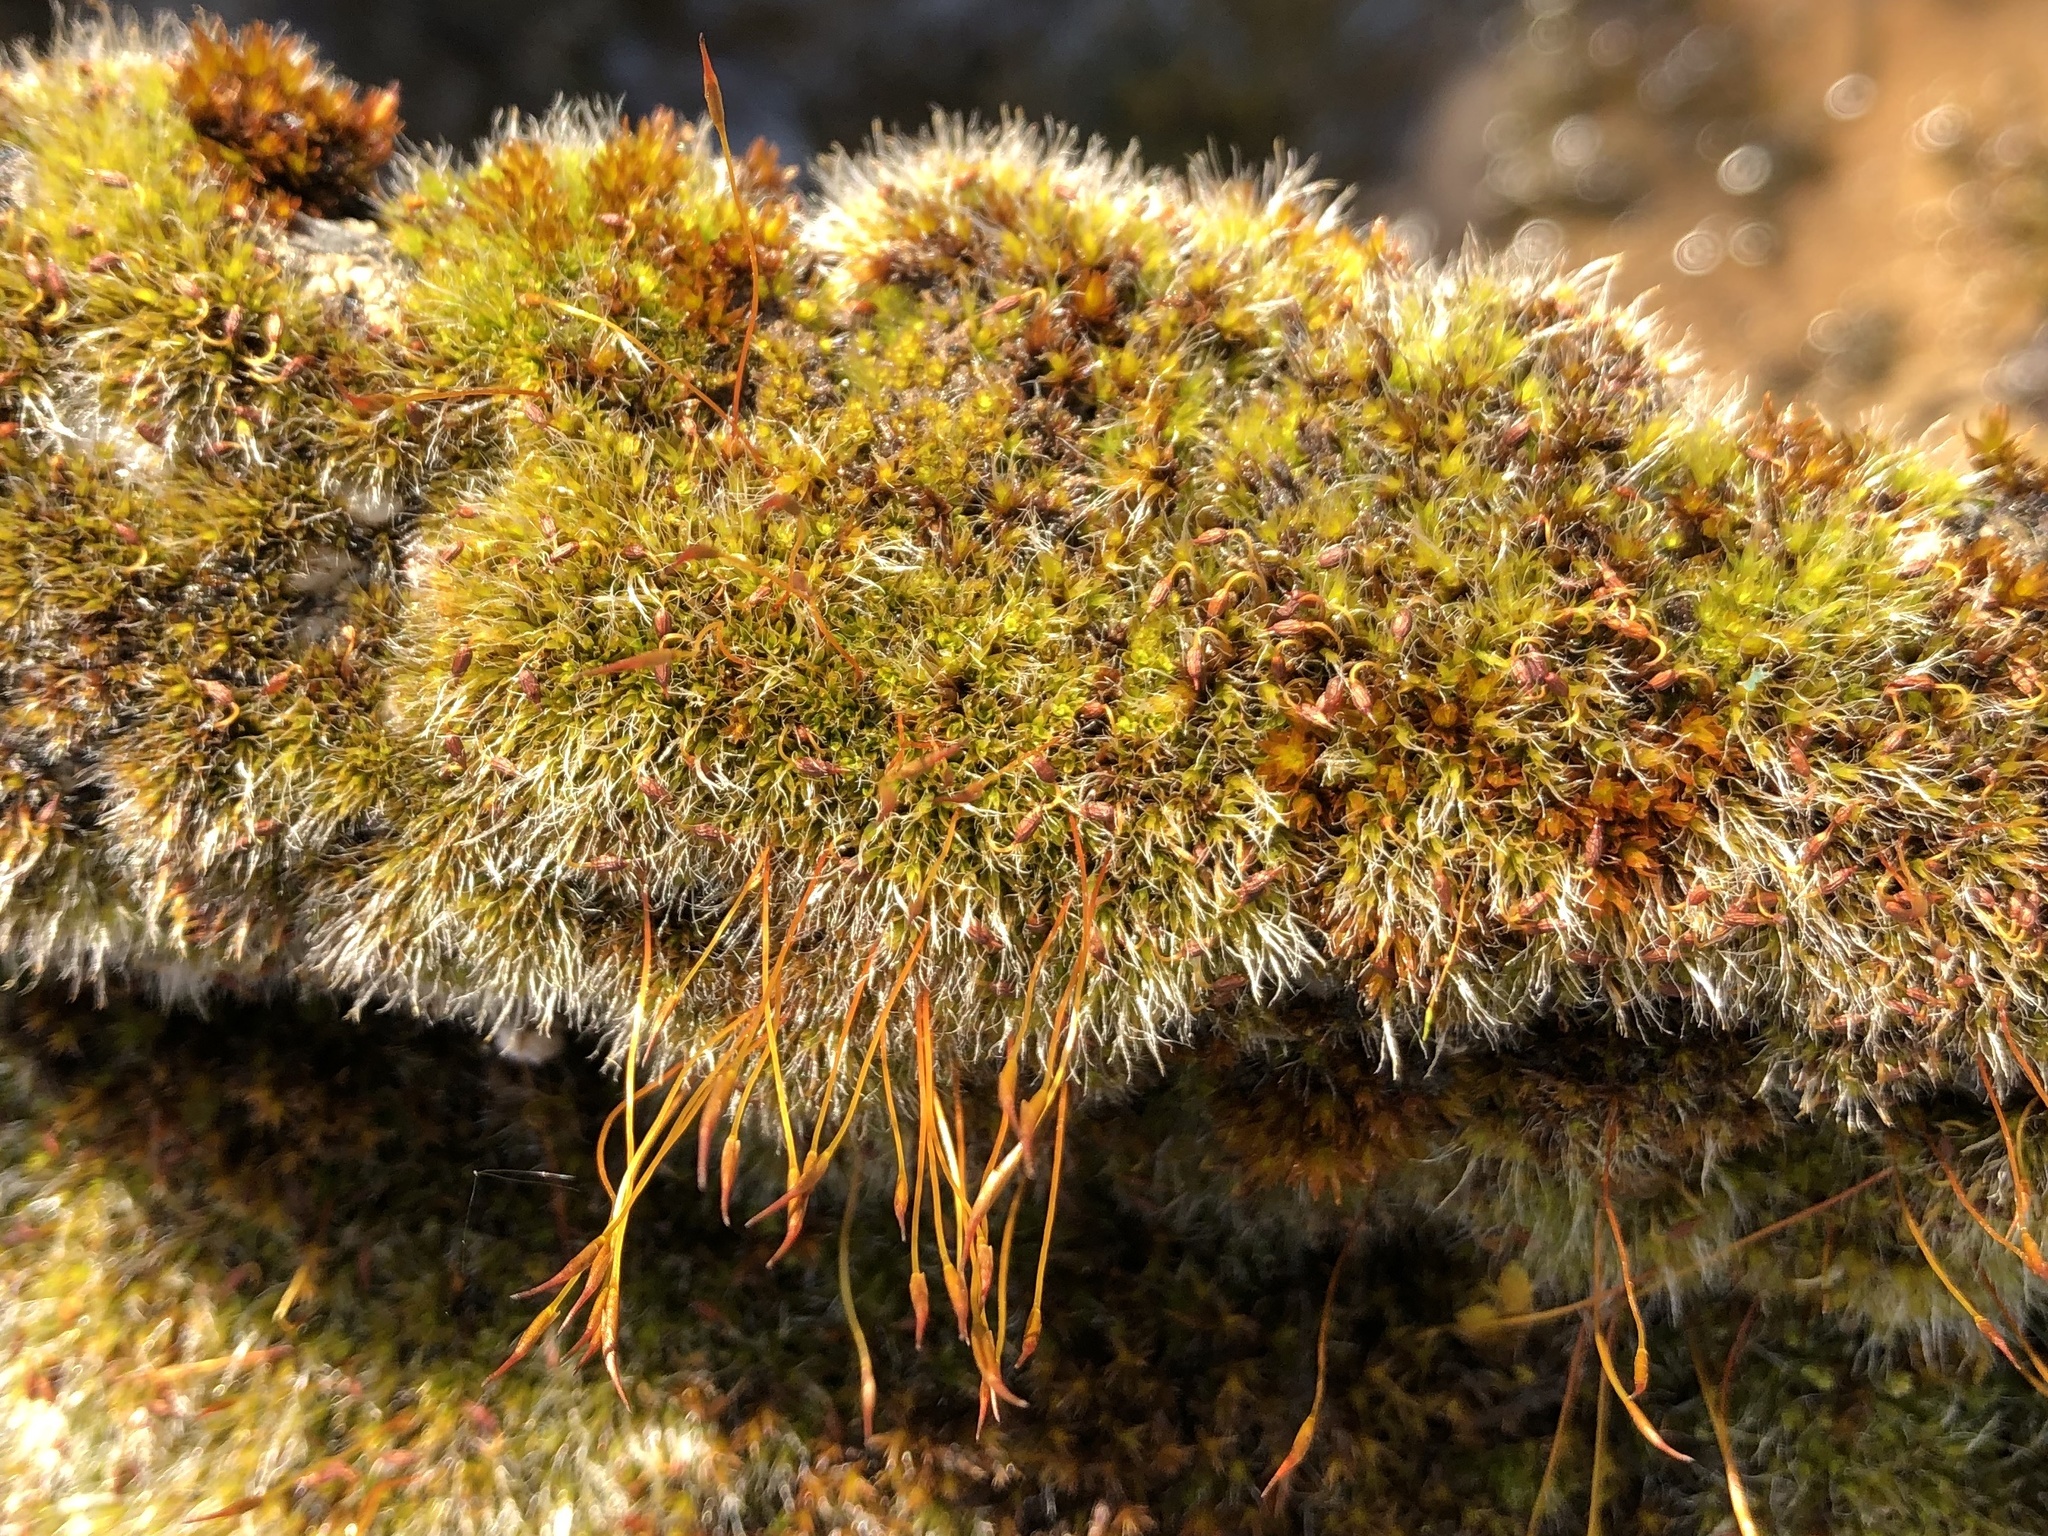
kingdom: Plantae
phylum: Bryophyta
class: Bryopsida
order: Pottiales
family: Pottiaceae
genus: Tortula
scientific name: Tortula muralis
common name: Wall screw-moss
